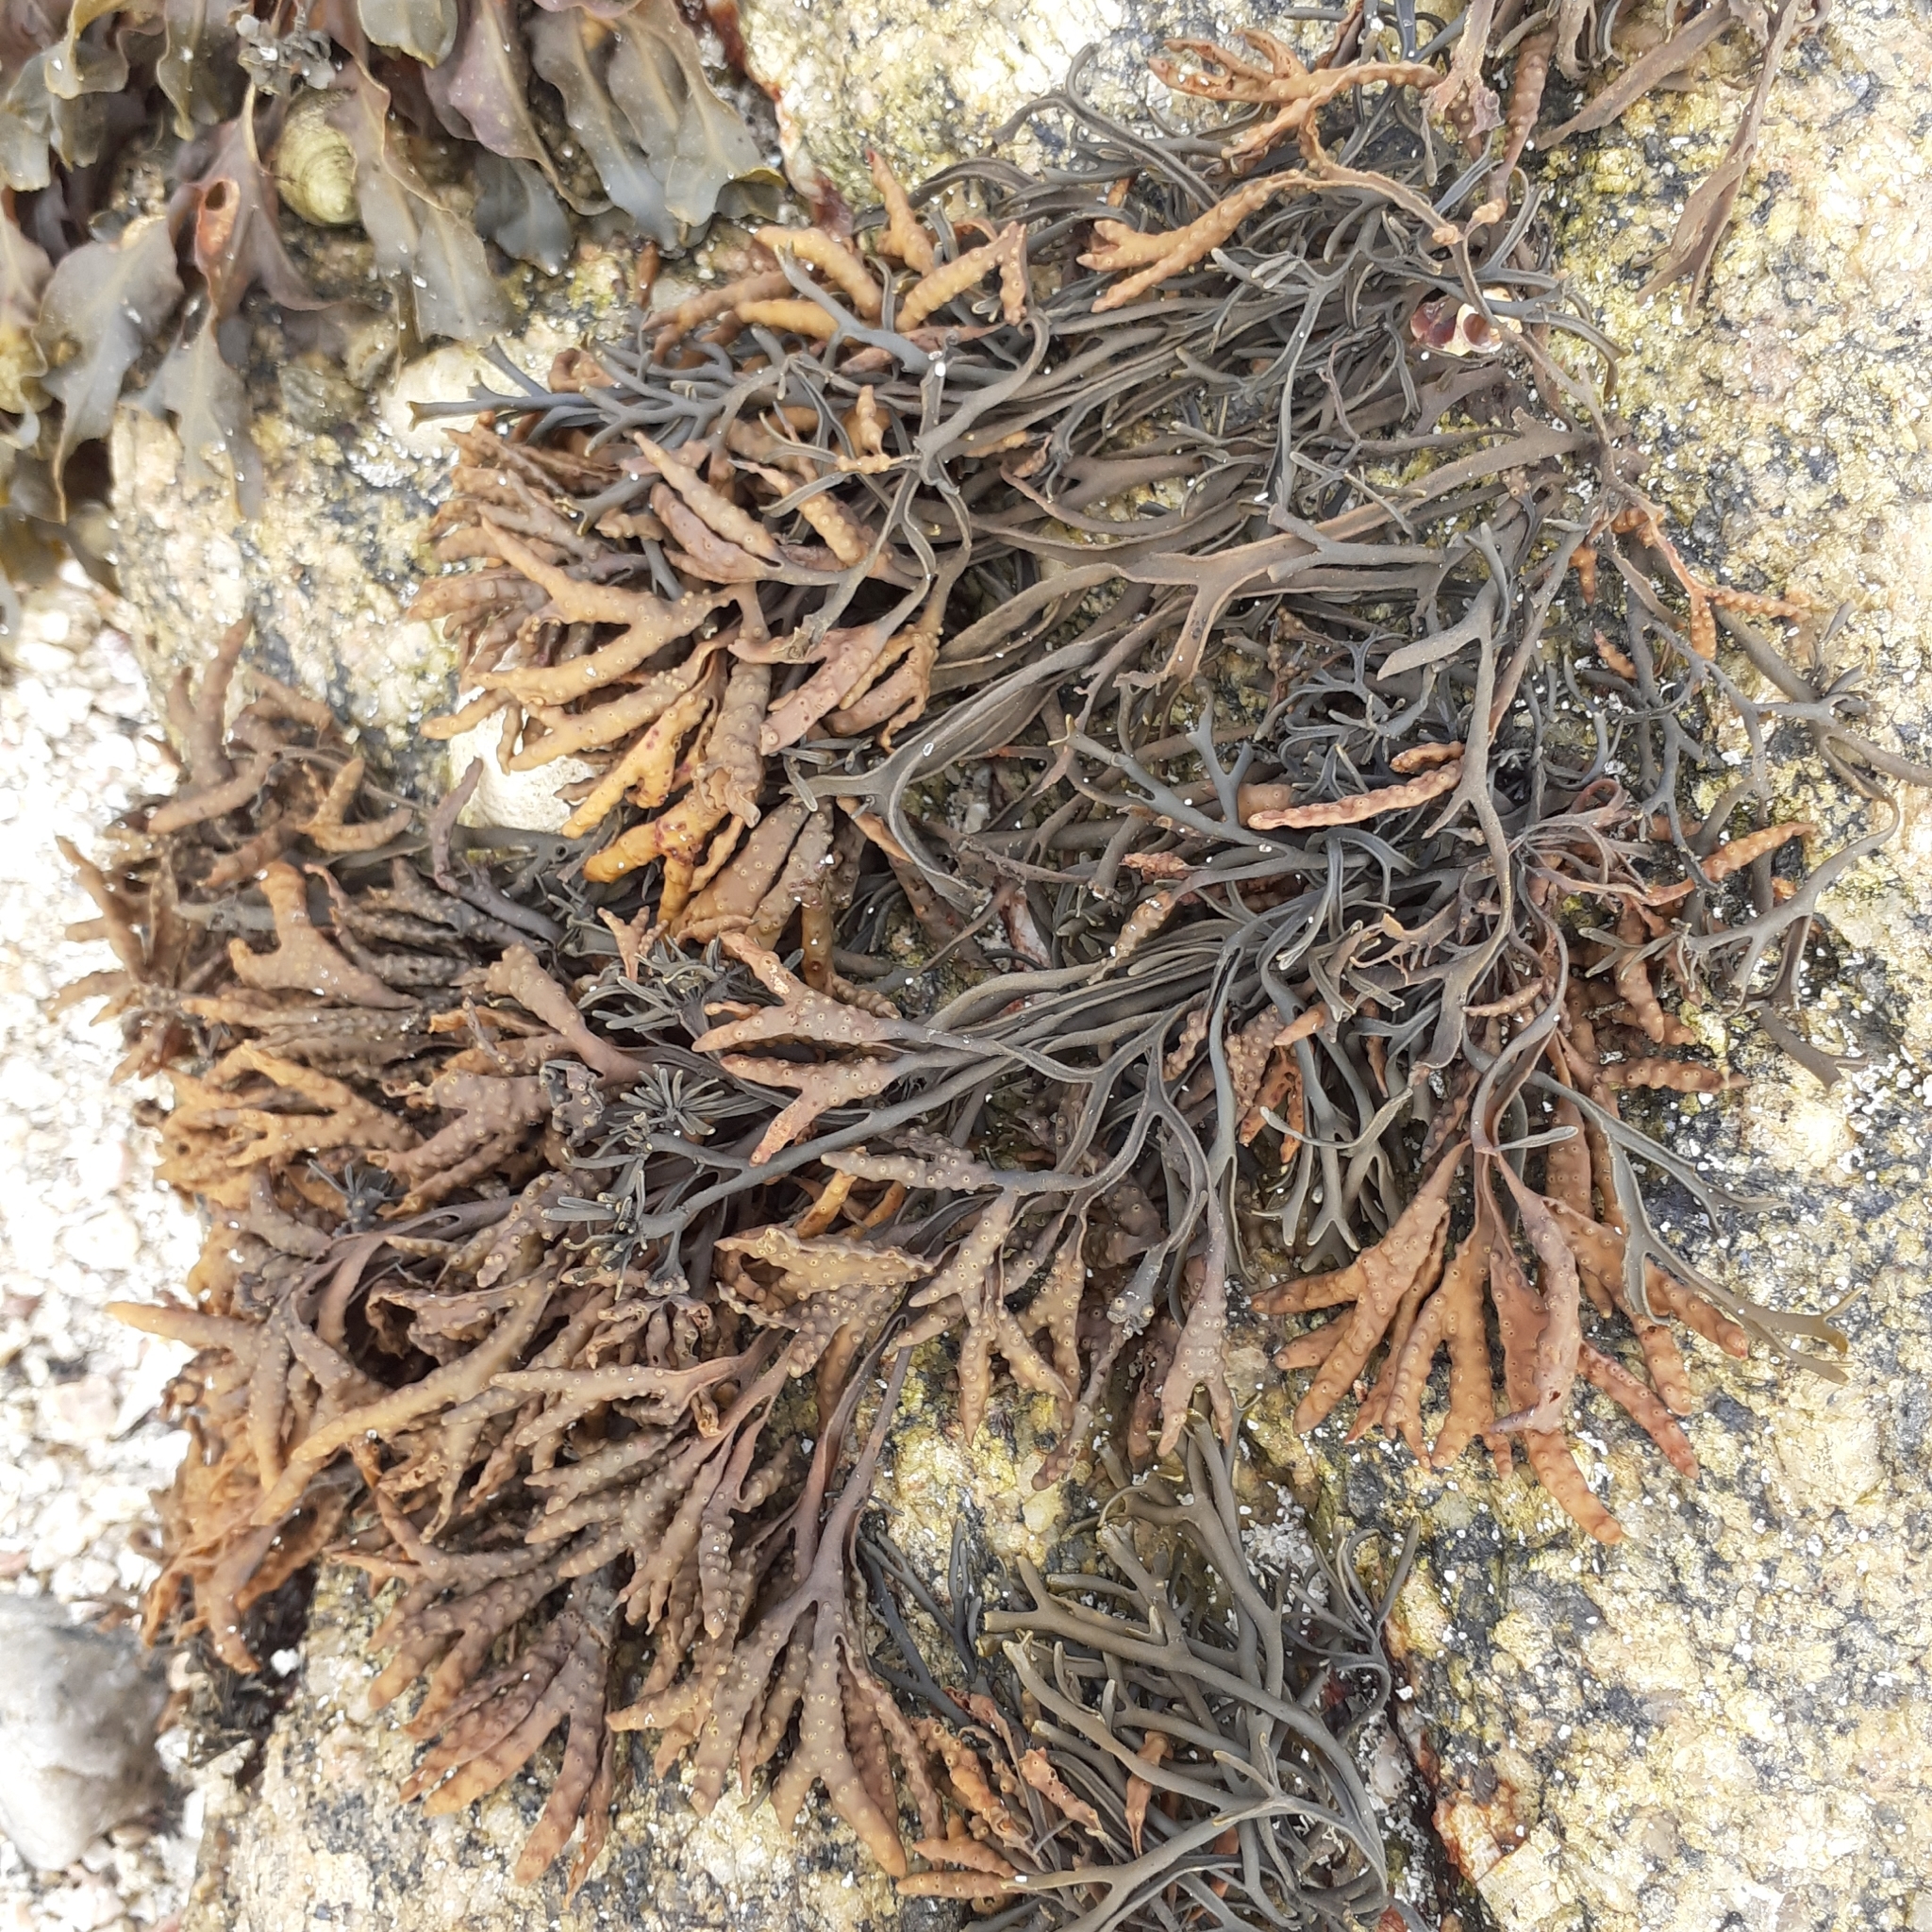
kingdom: Chromista
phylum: Ochrophyta
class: Phaeophyceae
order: Fucales
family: Fucaceae
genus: Pelvetia
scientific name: Pelvetia canaliculata
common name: Channelled wrack
